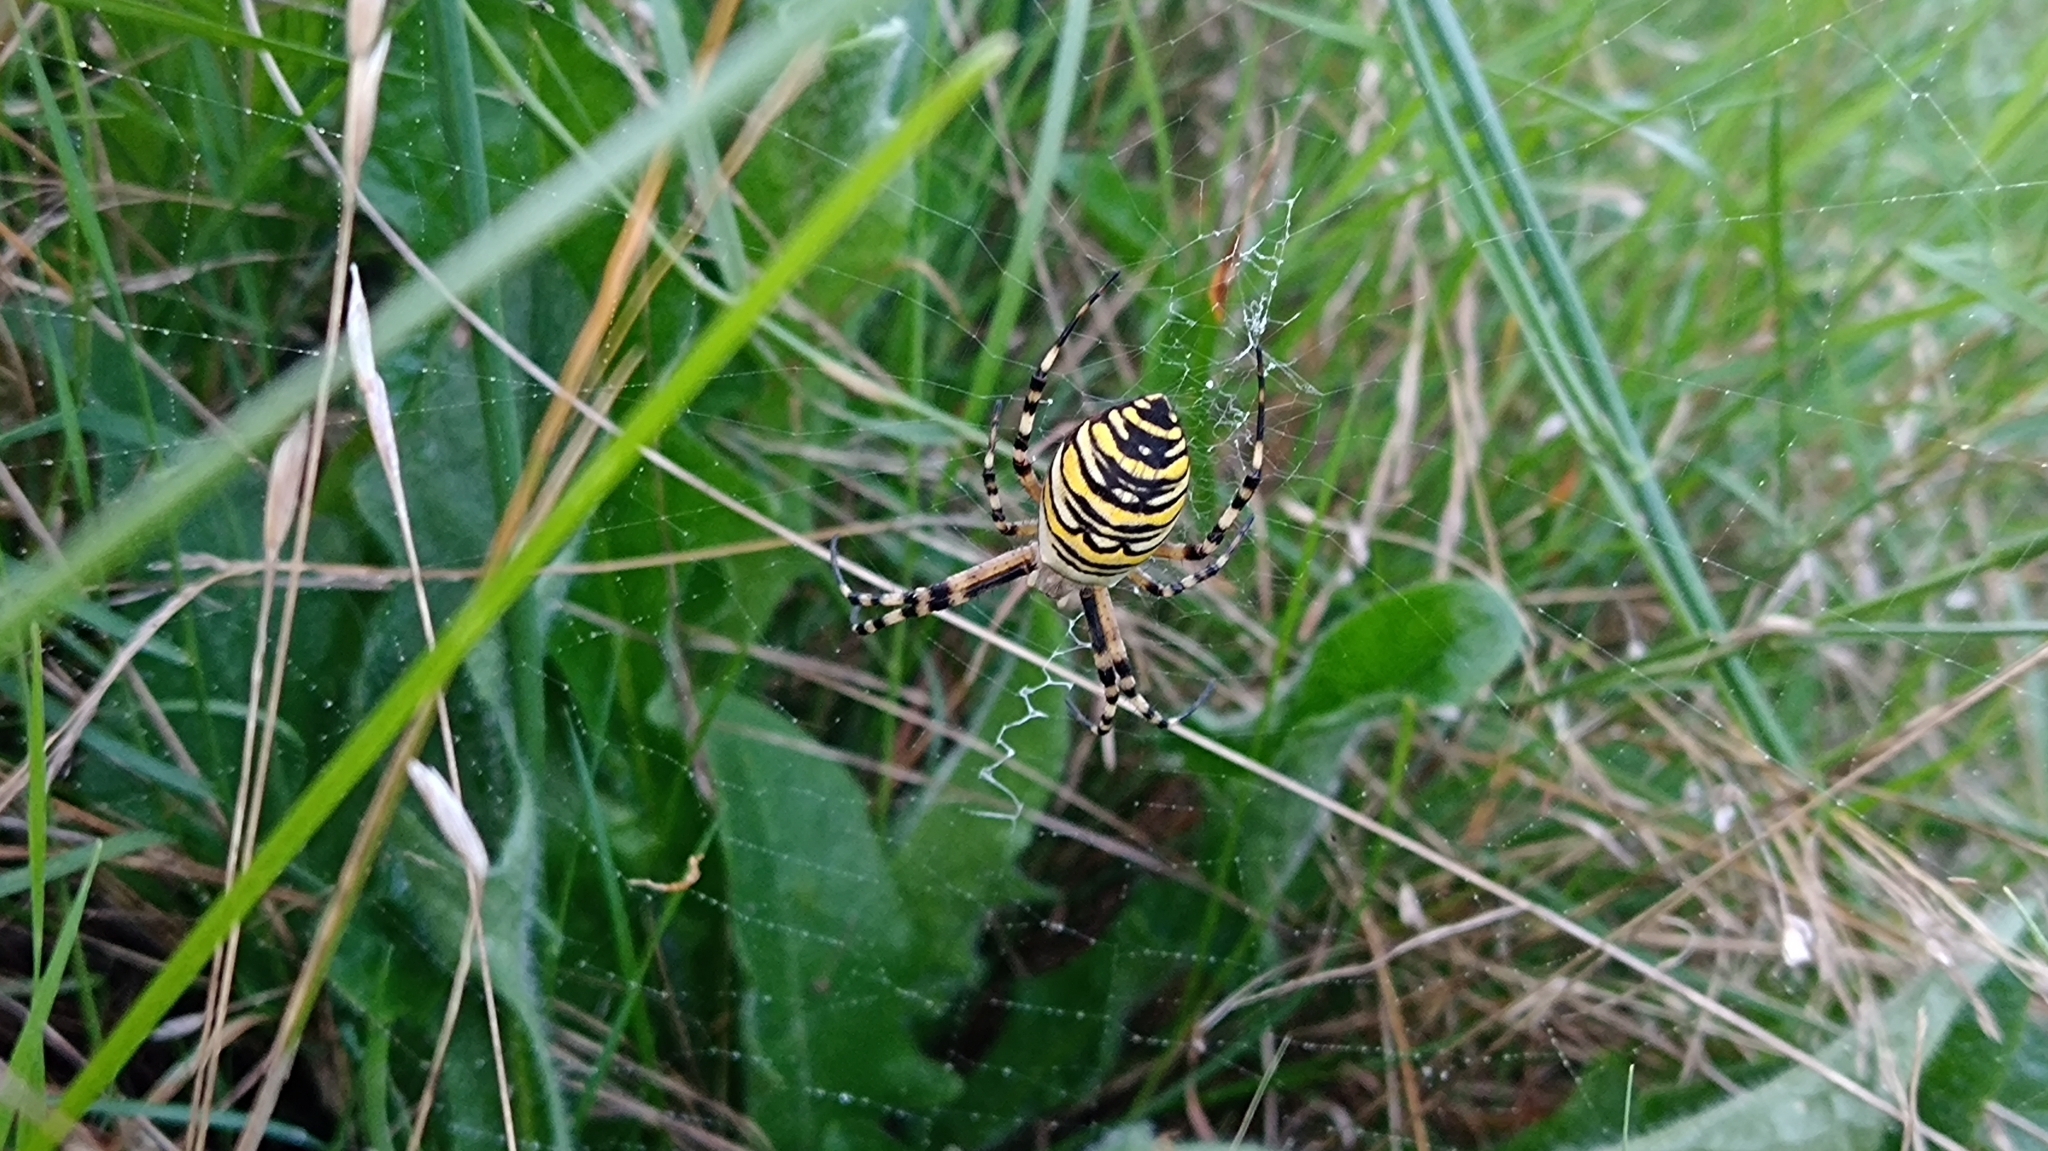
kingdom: Animalia
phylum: Arthropoda
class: Arachnida
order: Araneae
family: Araneidae
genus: Argiope
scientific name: Argiope bruennichi
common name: Wasp spider
